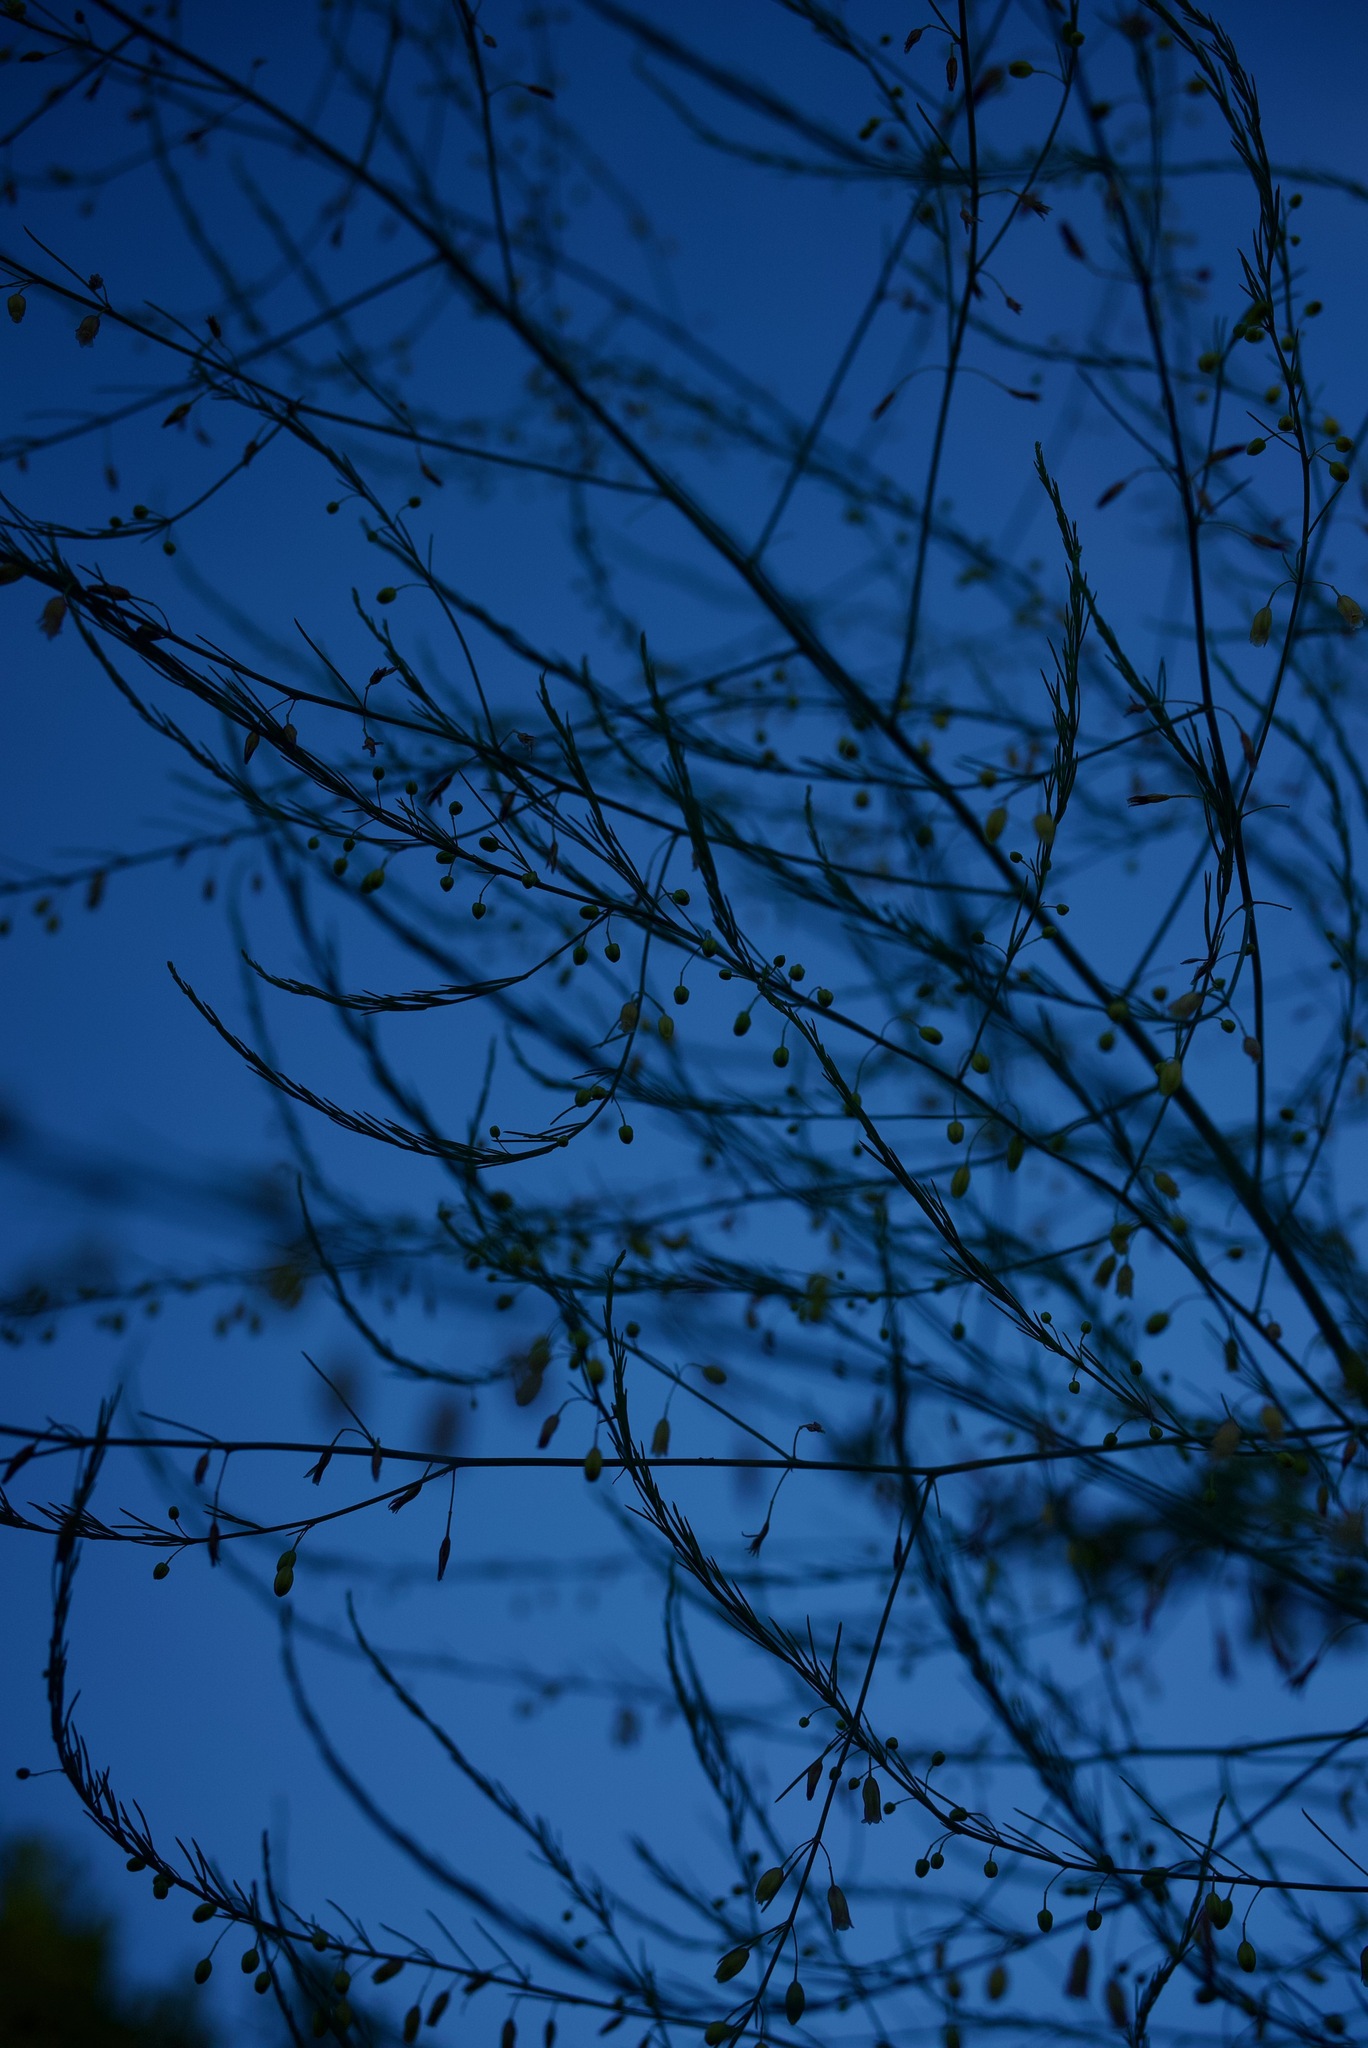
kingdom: Plantae
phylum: Tracheophyta
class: Liliopsida
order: Asparagales
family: Asparagaceae
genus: Asparagus
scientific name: Asparagus officinalis
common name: Garden asparagus
